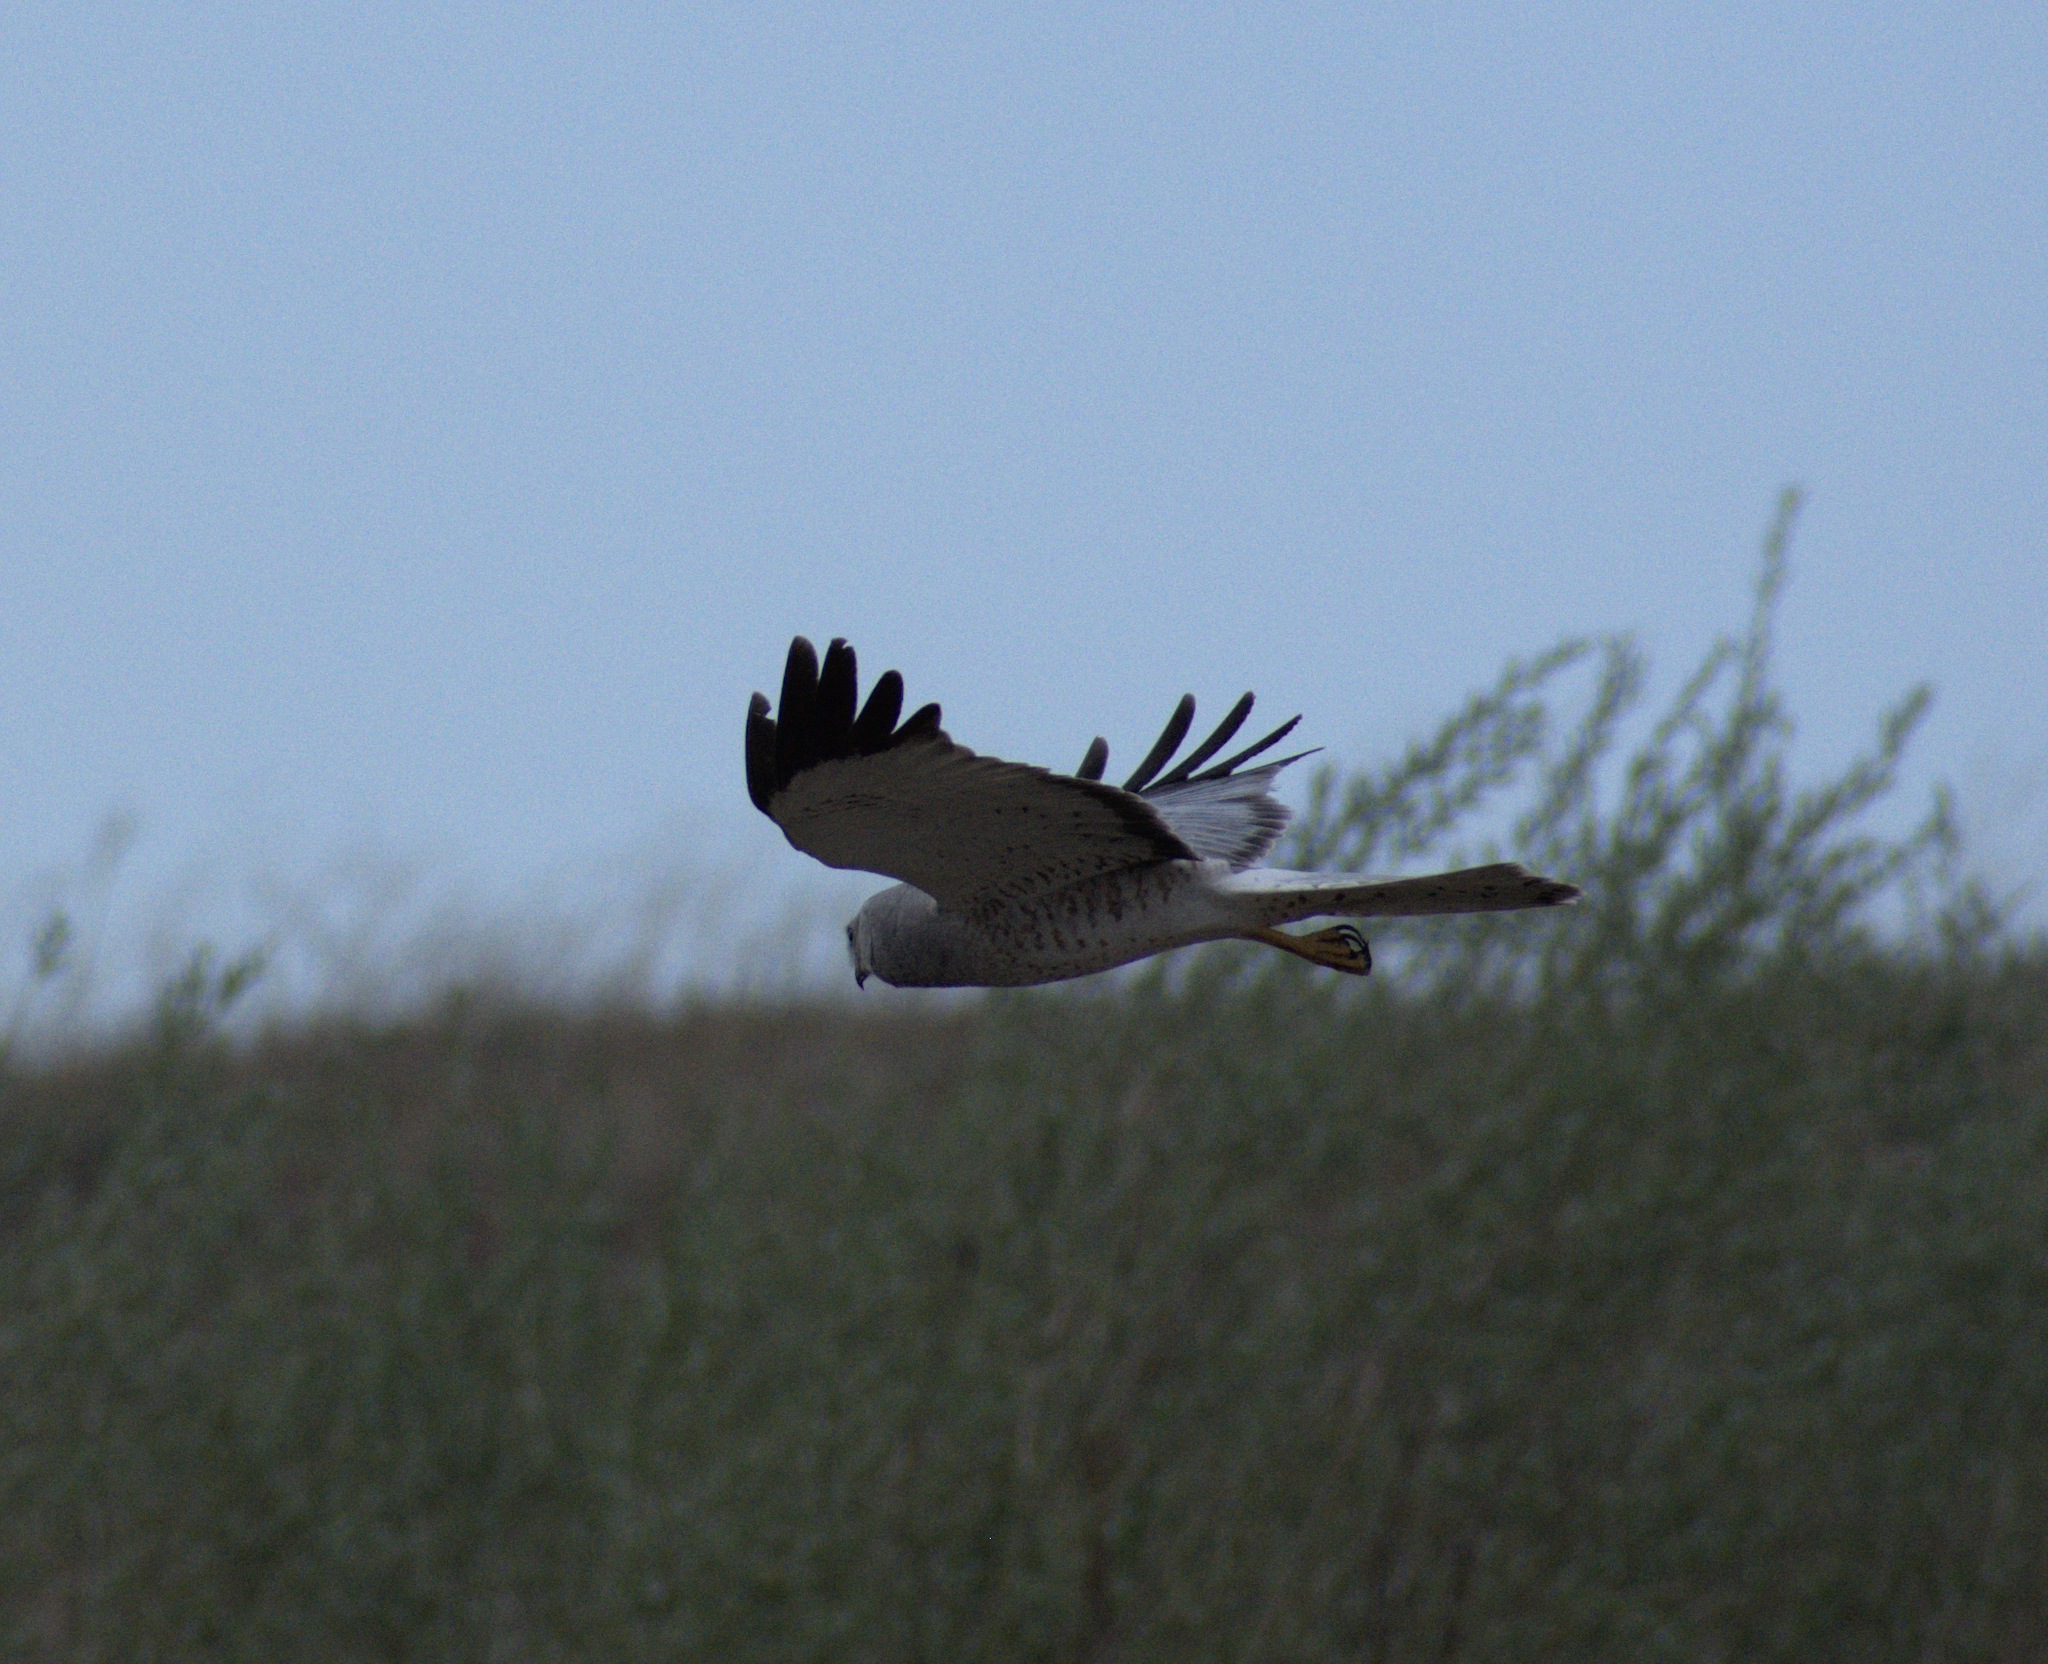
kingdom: Animalia
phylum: Chordata
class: Aves
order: Accipitriformes
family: Accipitridae
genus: Circus
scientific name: Circus cyaneus
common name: Hen harrier
